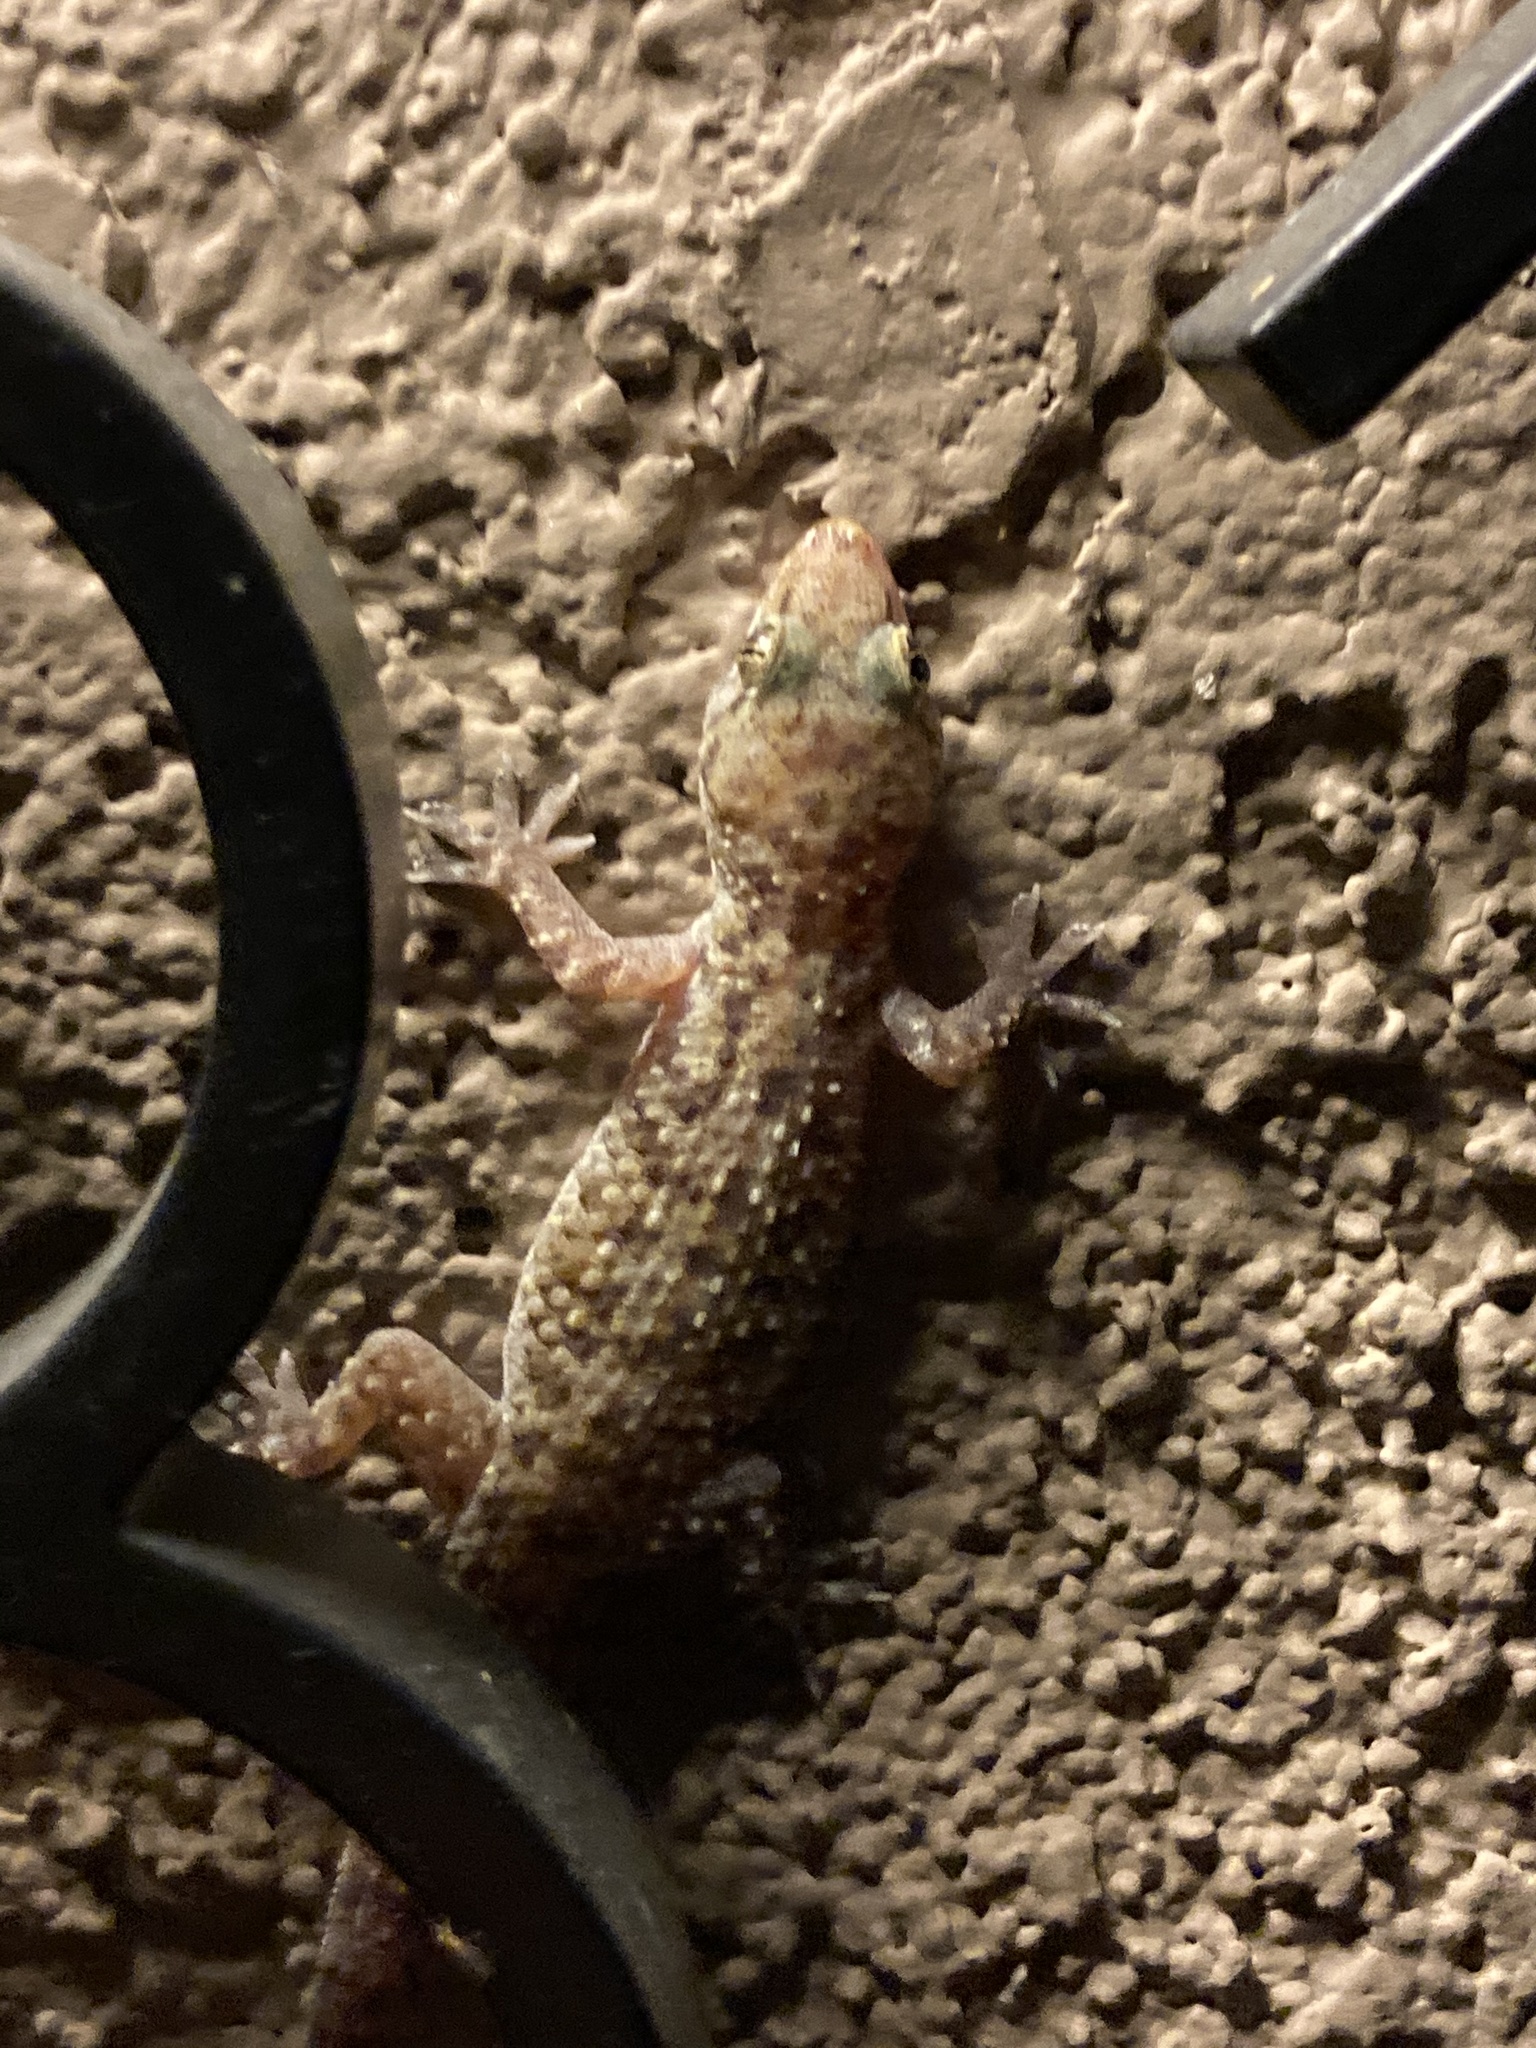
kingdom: Animalia
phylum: Chordata
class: Squamata
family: Gekkonidae
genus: Hemidactylus
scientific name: Hemidactylus turcicus
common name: Turkish gecko
